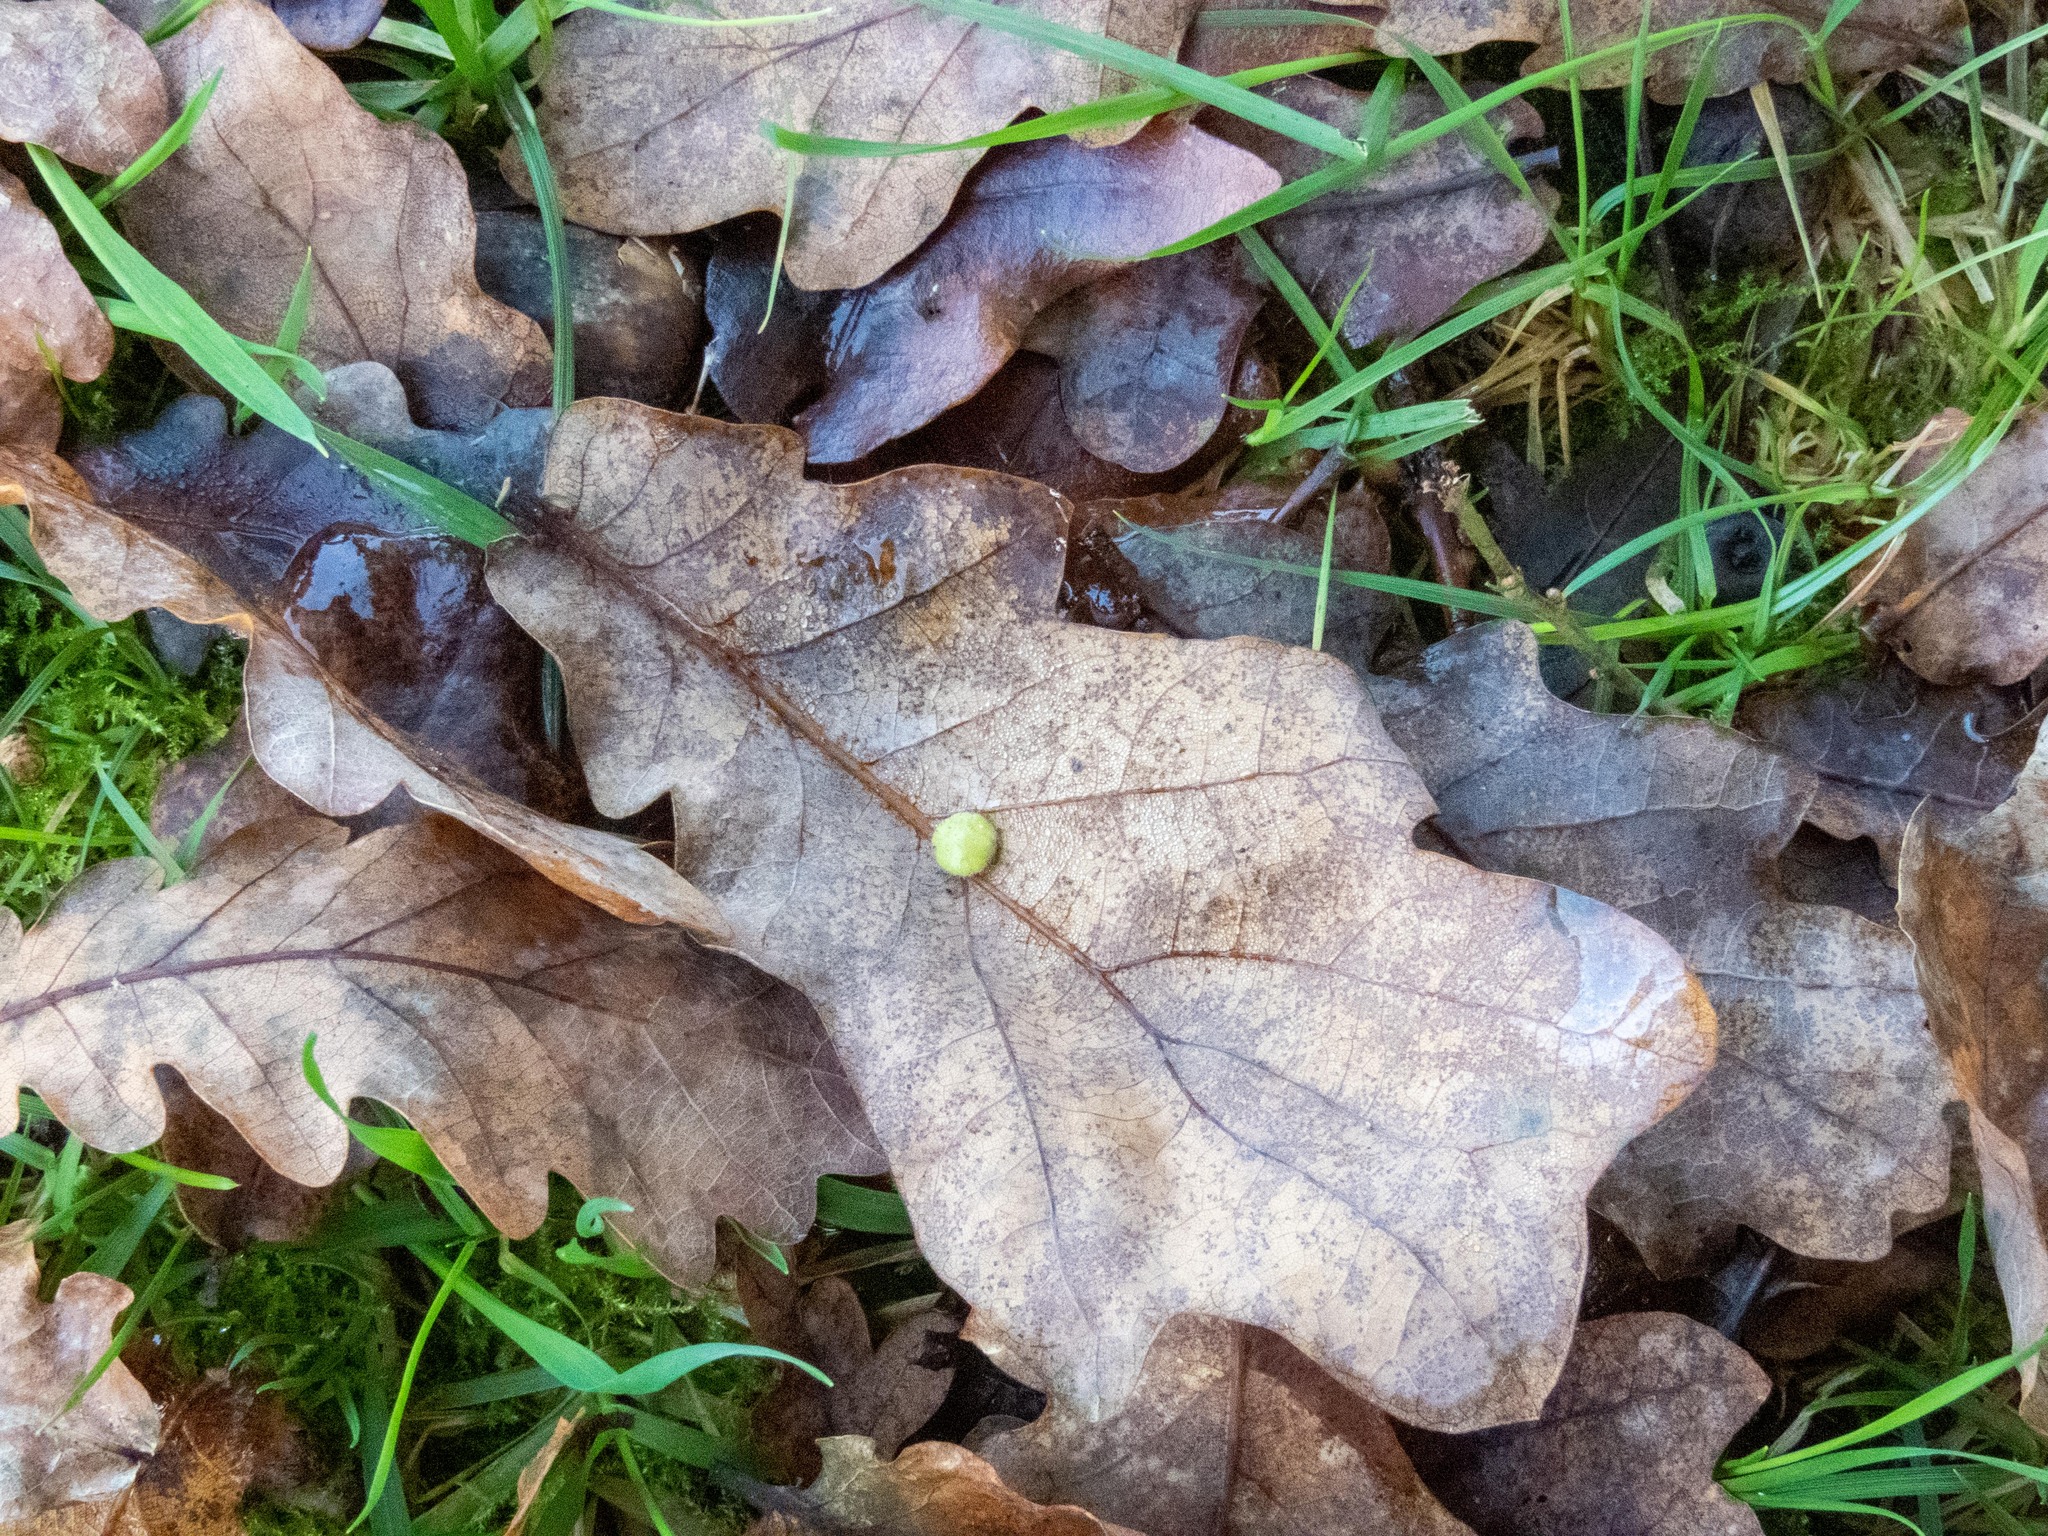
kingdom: Animalia
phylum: Arthropoda
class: Insecta
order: Hymenoptera
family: Cynipidae
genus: Neuroterus
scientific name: Neuroterus quercusbaccarum
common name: Common spangle gall
